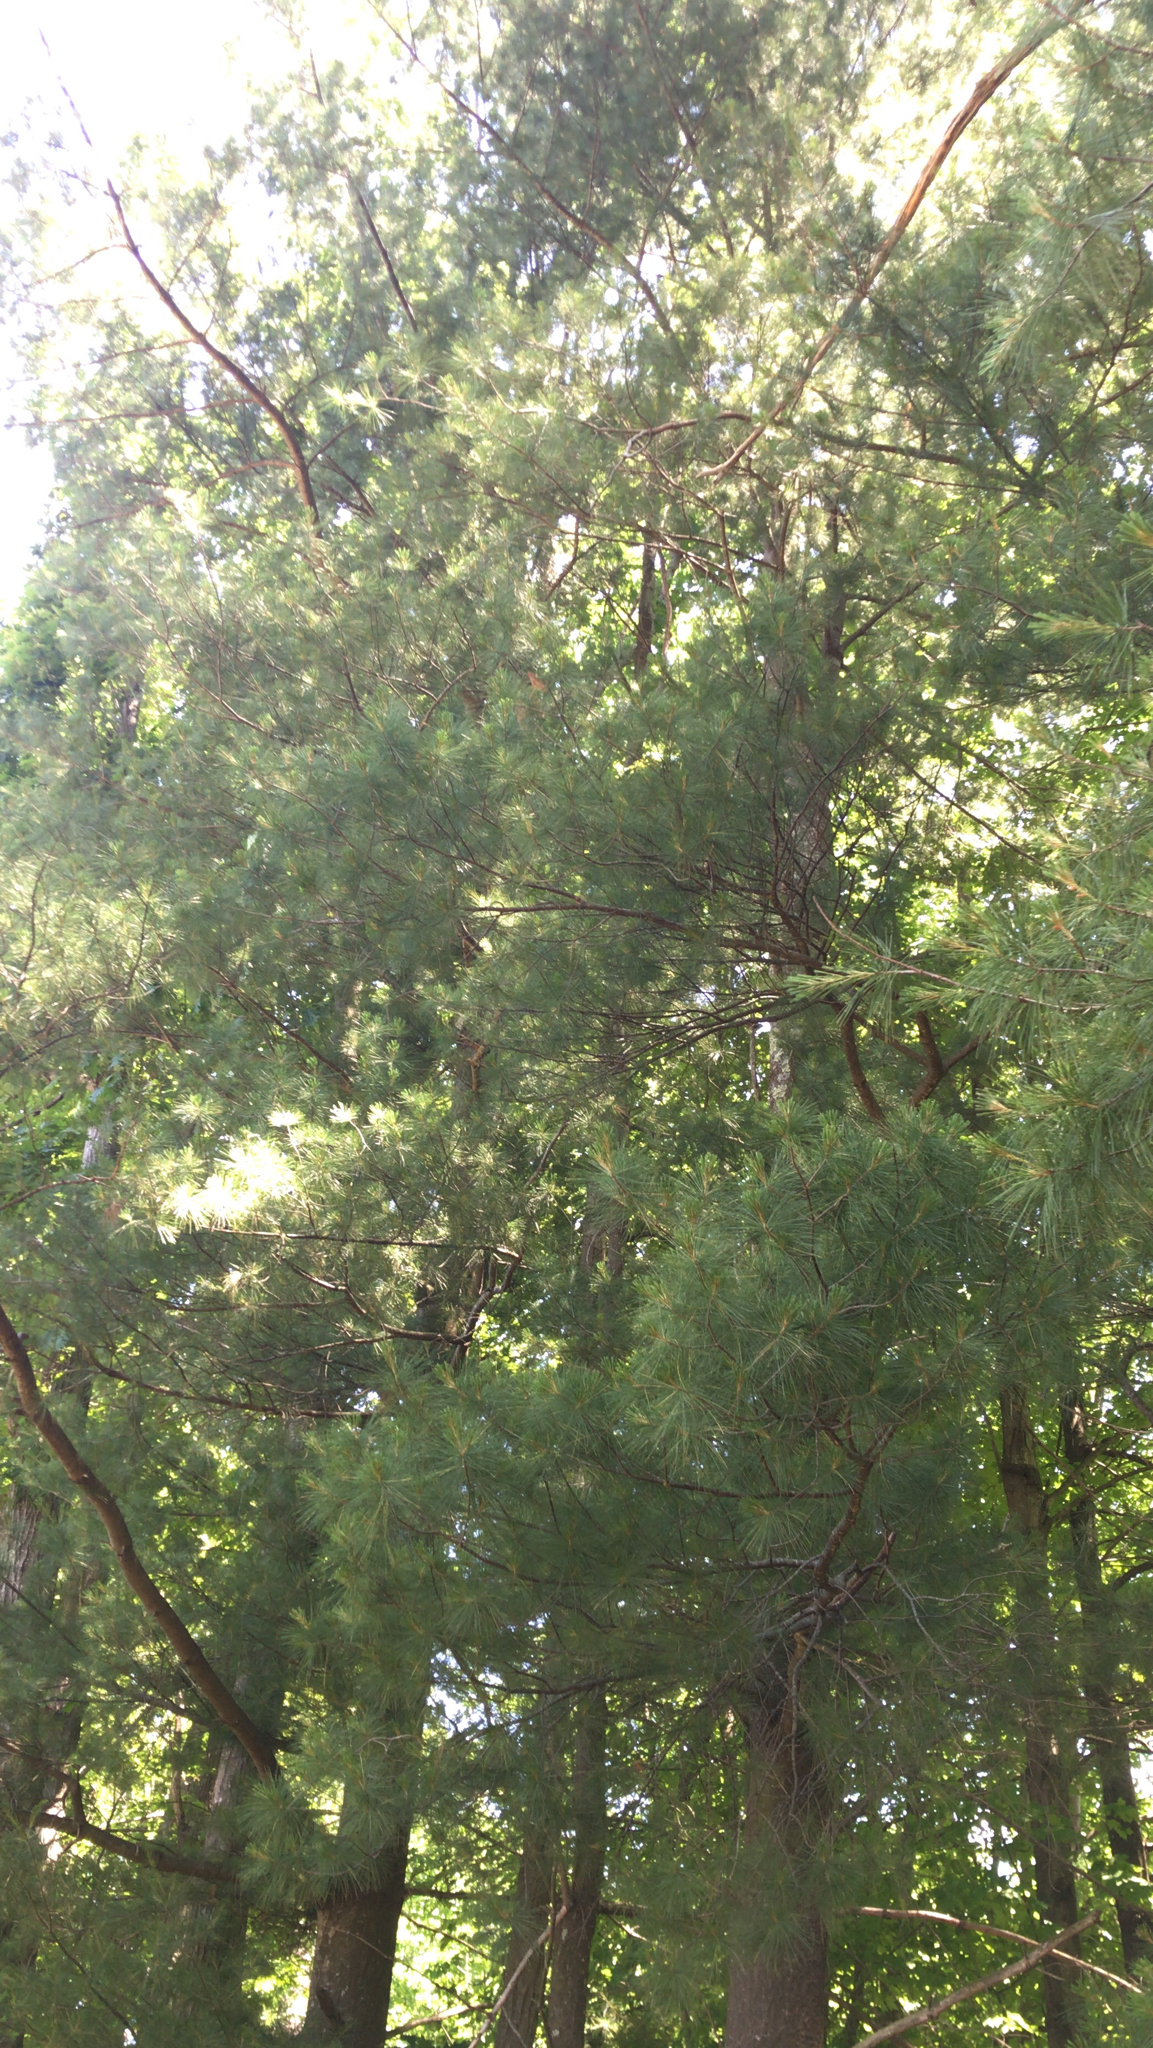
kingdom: Plantae
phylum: Tracheophyta
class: Pinopsida
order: Pinales
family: Pinaceae
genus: Pinus
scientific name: Pinus strobus
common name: Weymouth pine
